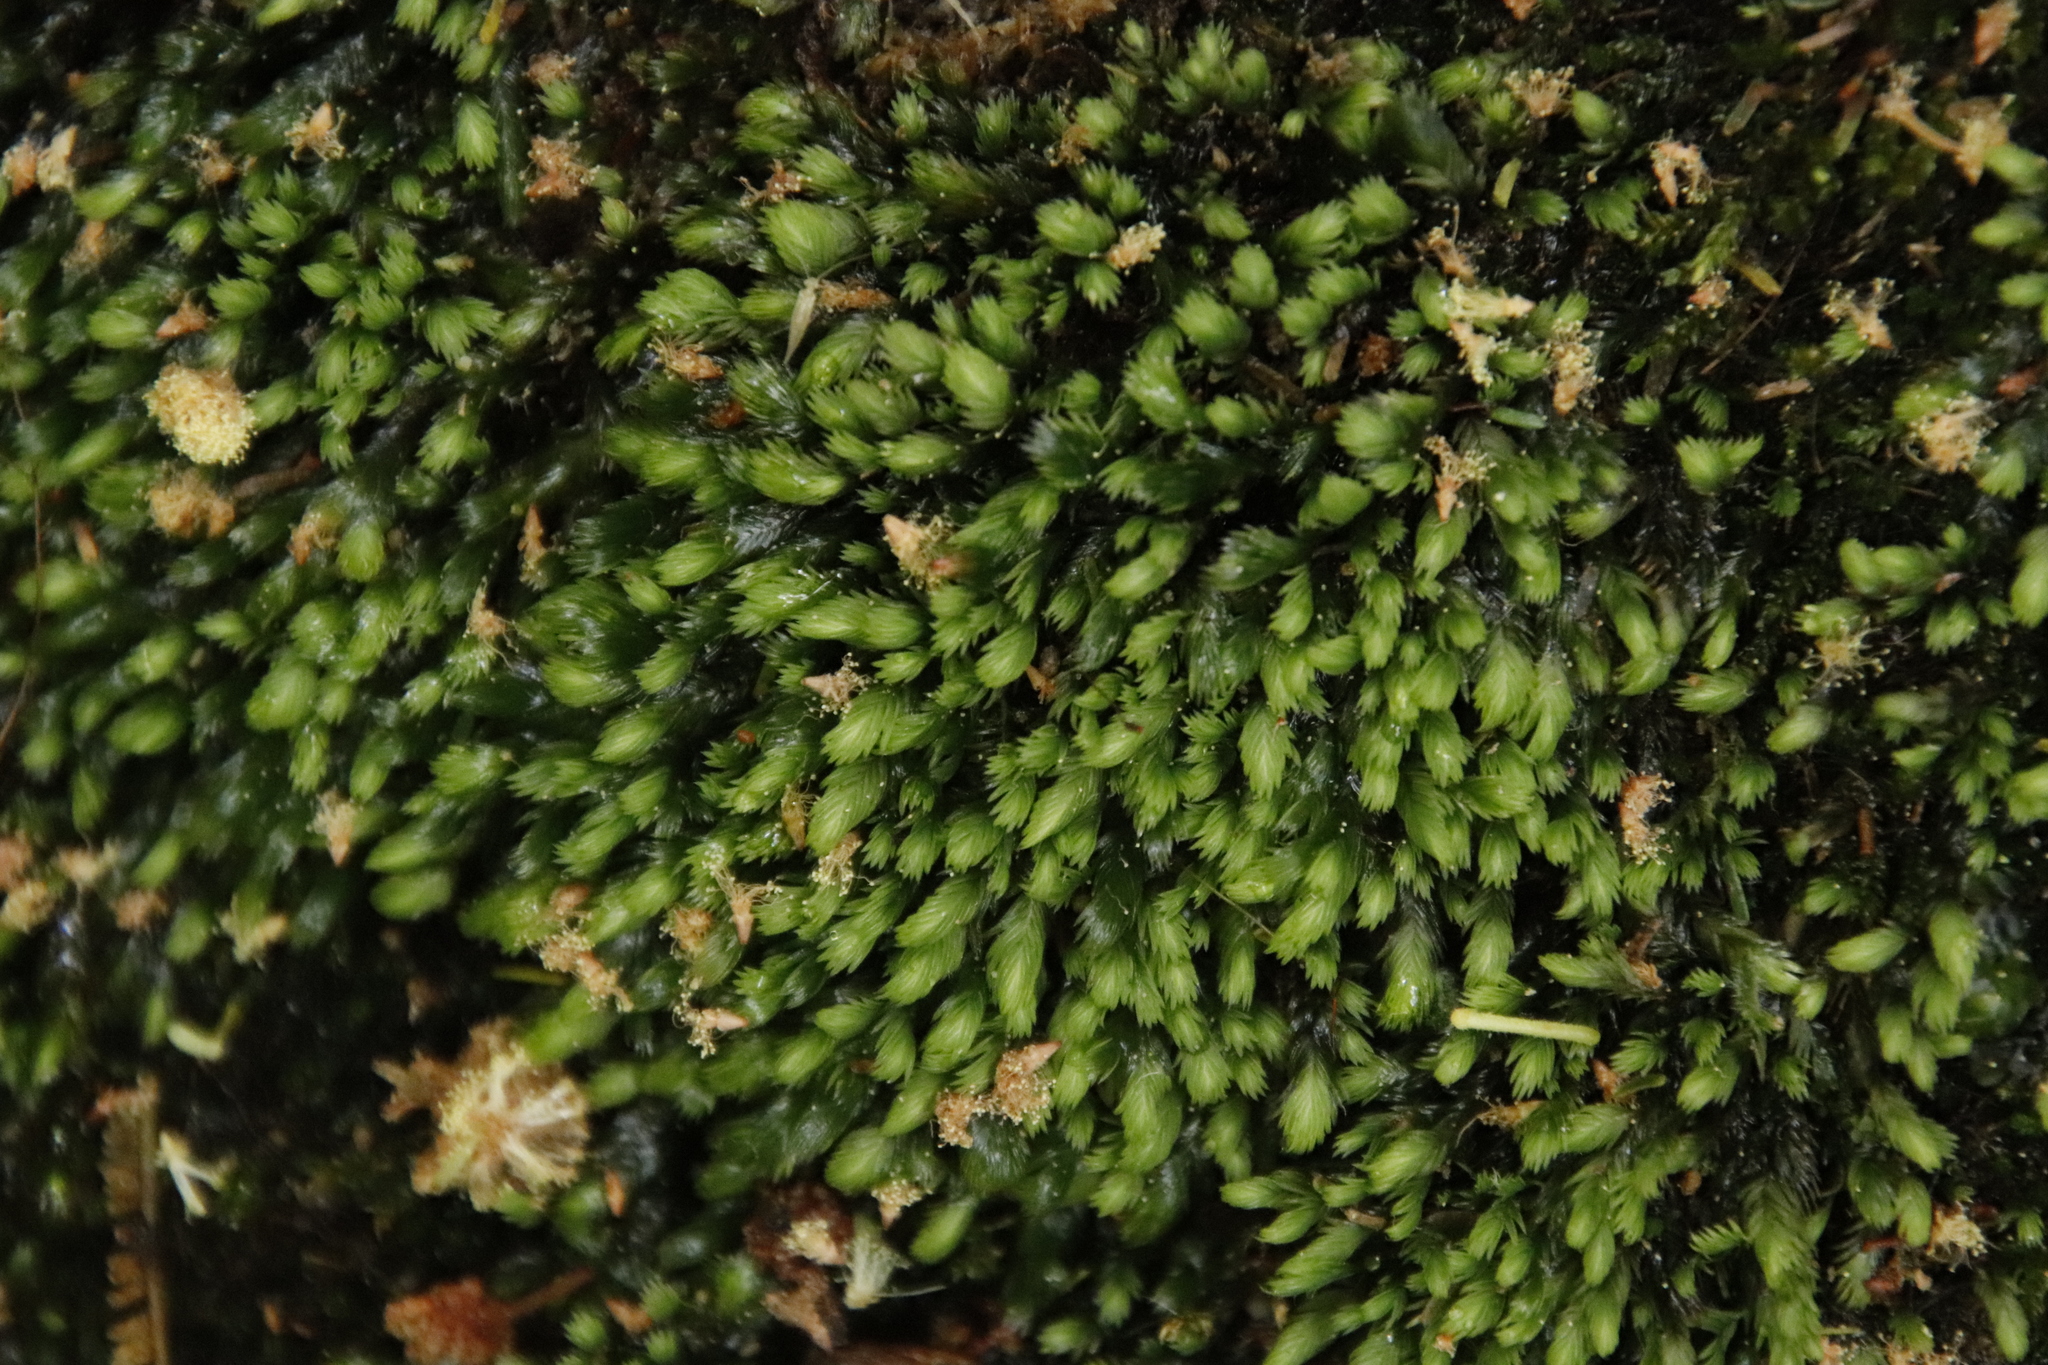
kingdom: Plantae
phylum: Bryophyta
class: Bryopsida
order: Dicranales
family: Fissidentaceae
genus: Fissidens
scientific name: Fissidens ovatus
